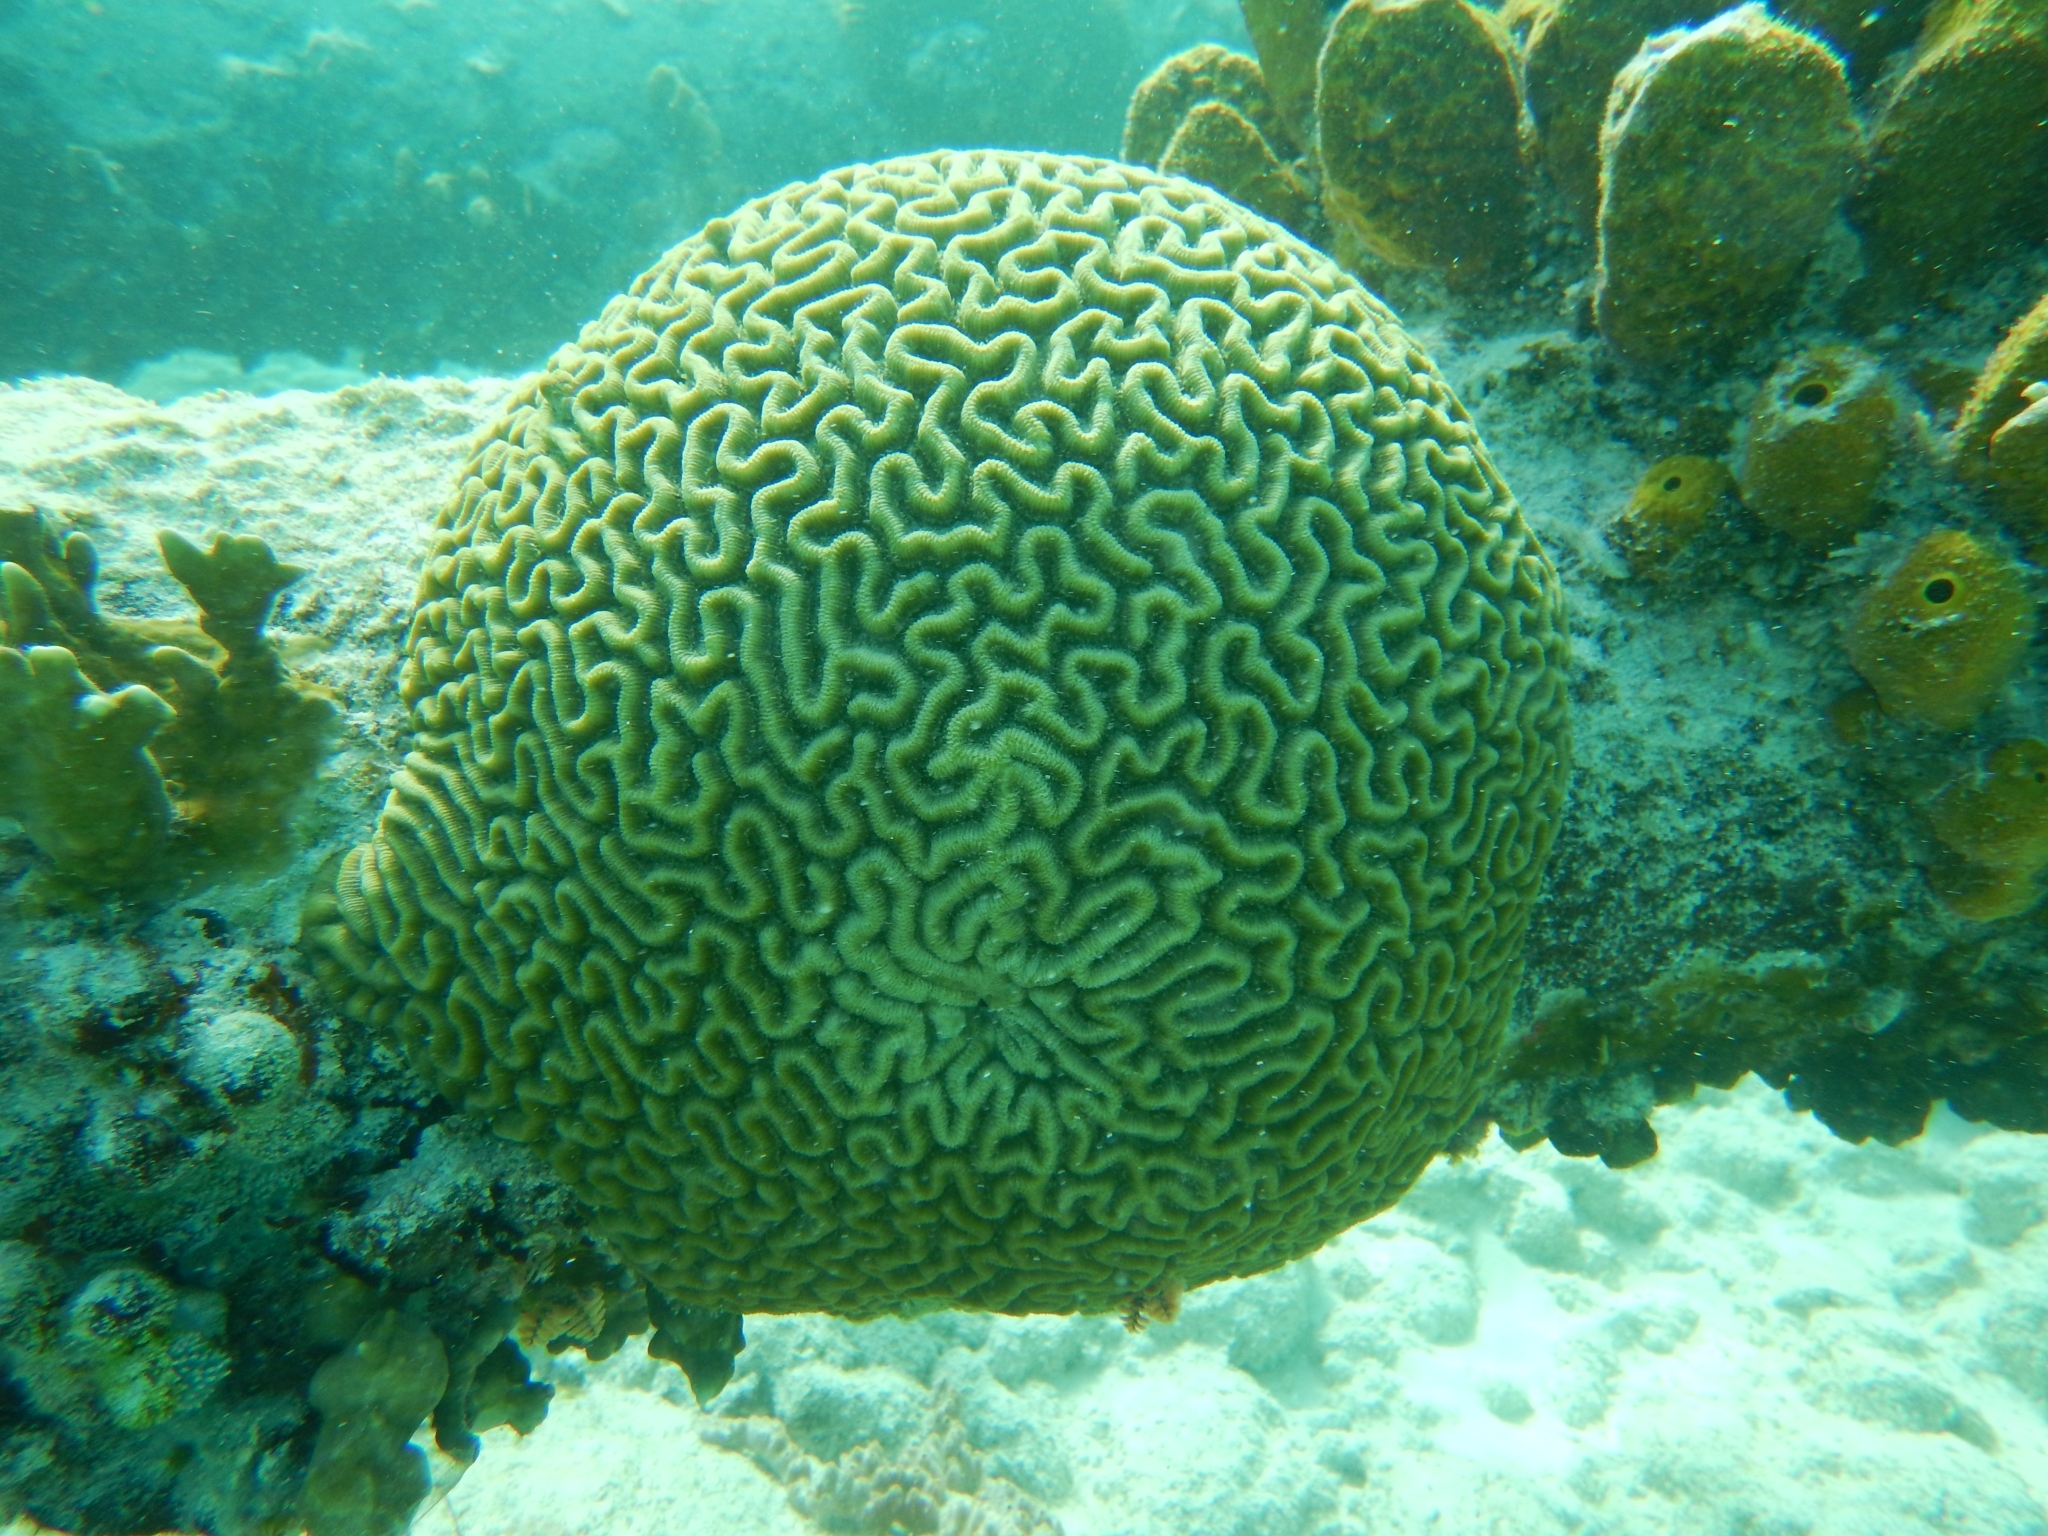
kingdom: Animalia
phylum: Cnidaria
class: Anthozoa
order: Scleractinia
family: Faviidae
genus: Pseudodiploria
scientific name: Pseudodiploria strigosa
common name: Symmetrical brain coral
